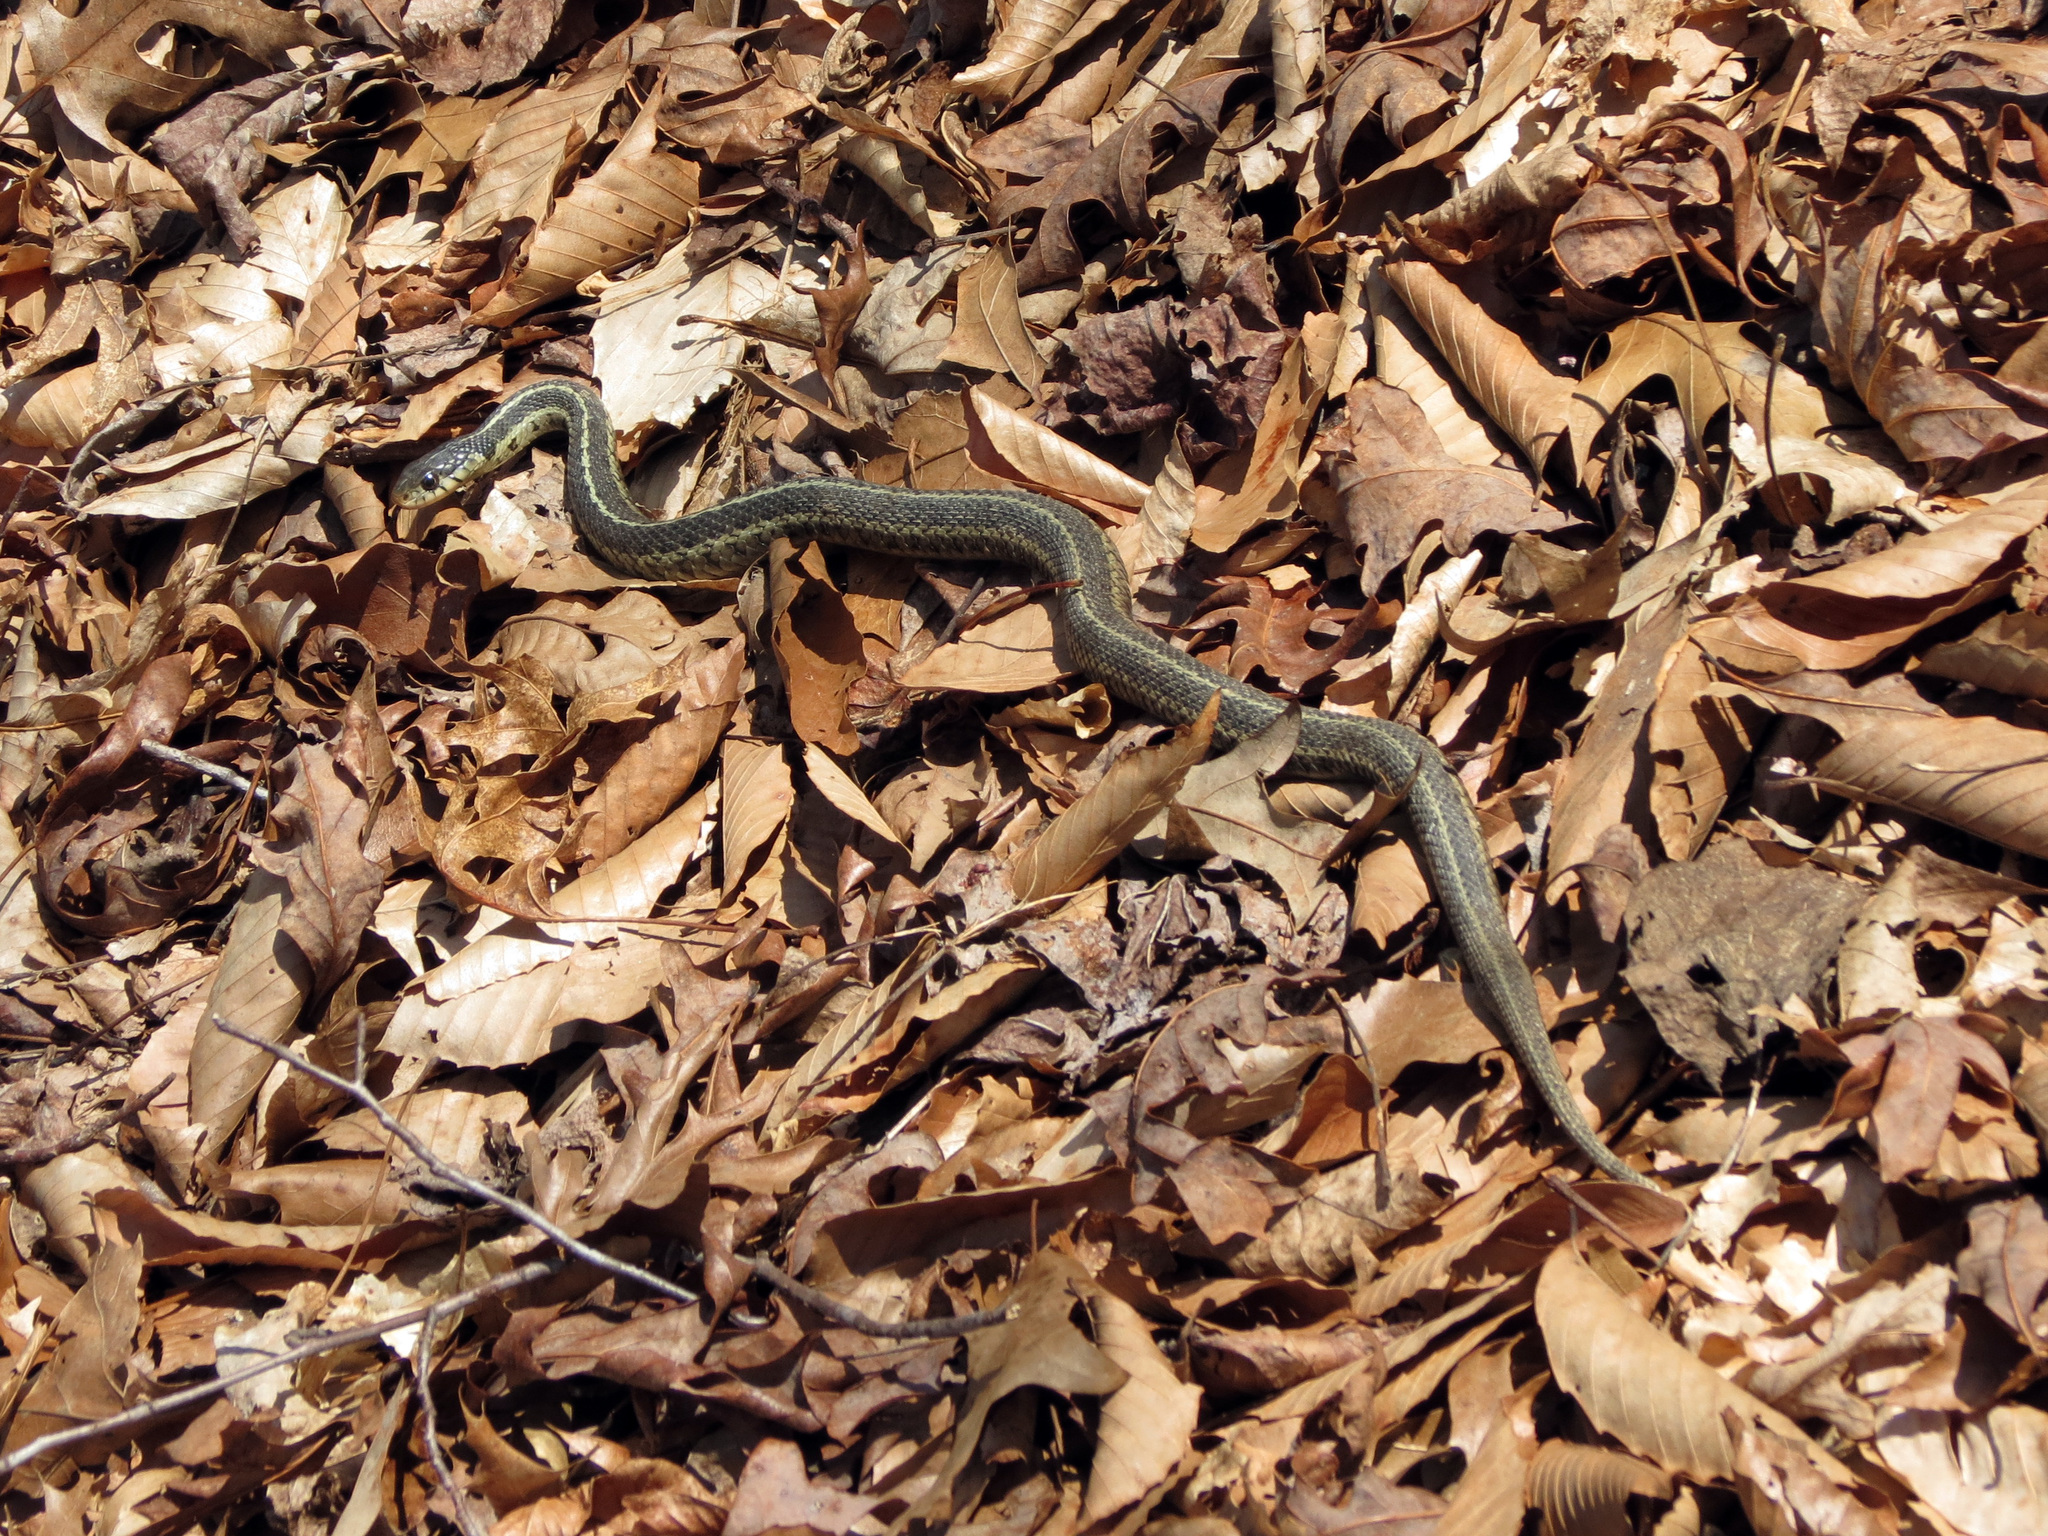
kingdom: Animalia
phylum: Chordata
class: Squamata
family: Colubridae
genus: Thamnophis
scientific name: Thamnophis sirtalis
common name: Common garter snake
